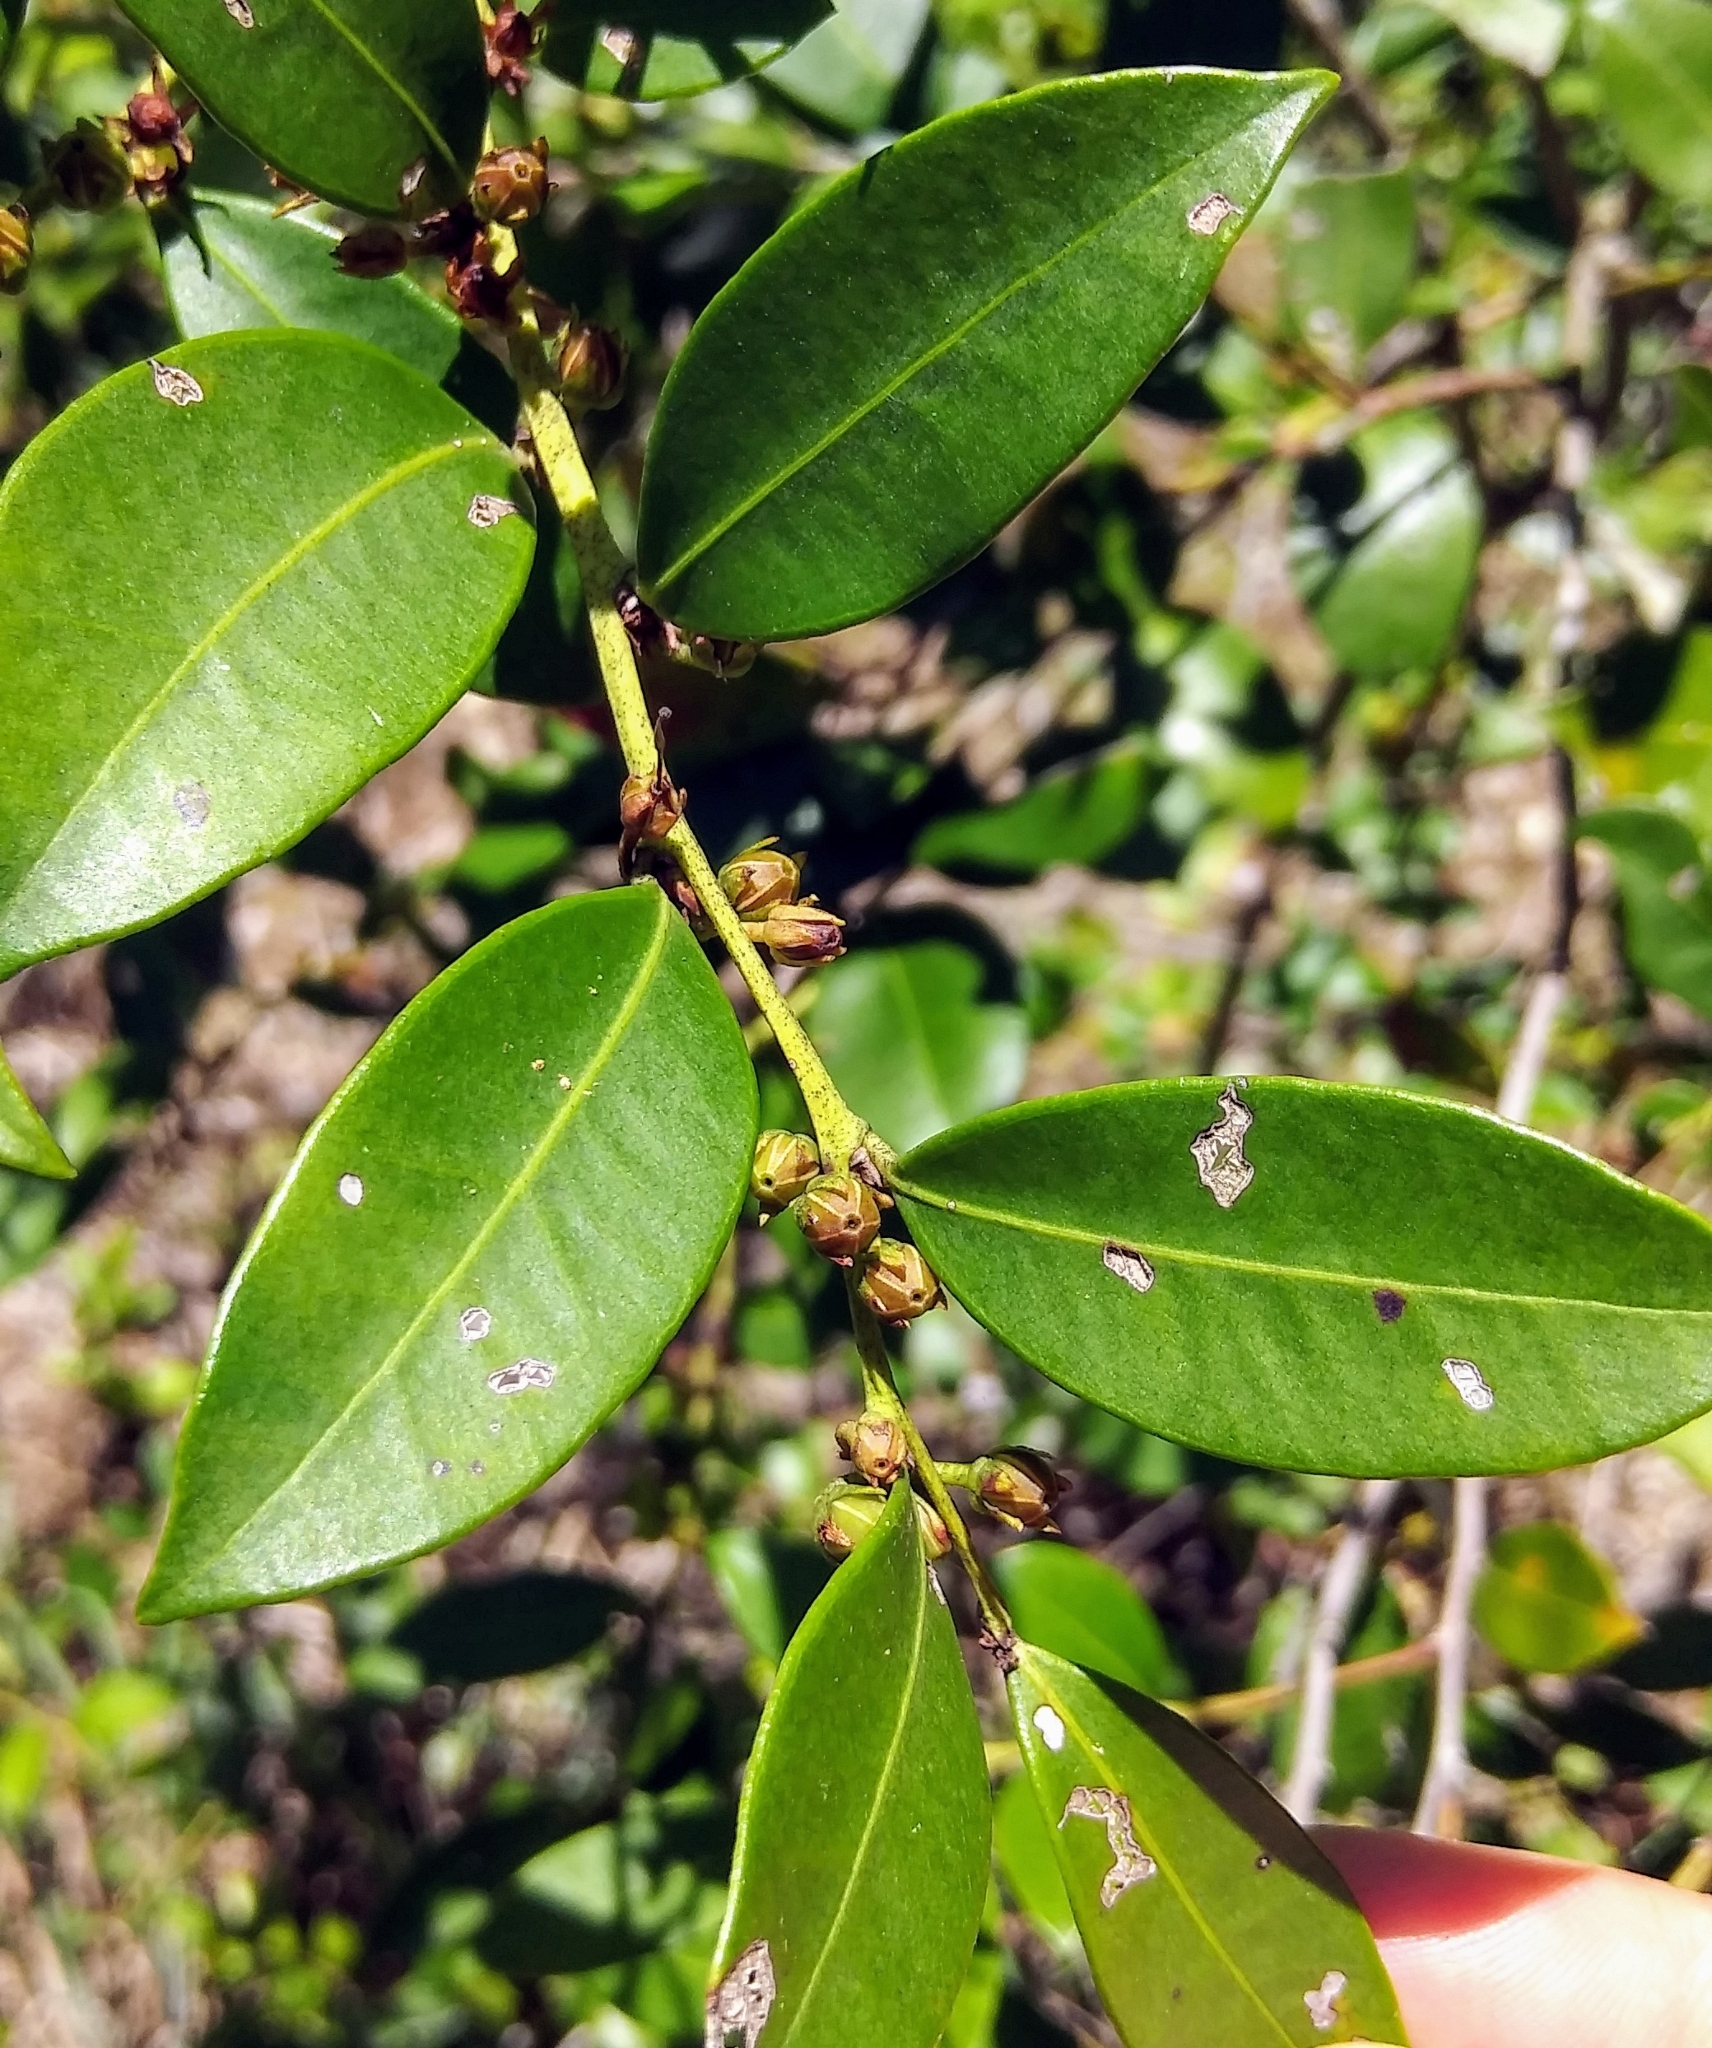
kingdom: Plantae
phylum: Tracheophyta
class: Magnoliopsida
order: Ericales
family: Ericaceae
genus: Lyonia
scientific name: Lyonia lucida
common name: Fetterbush
